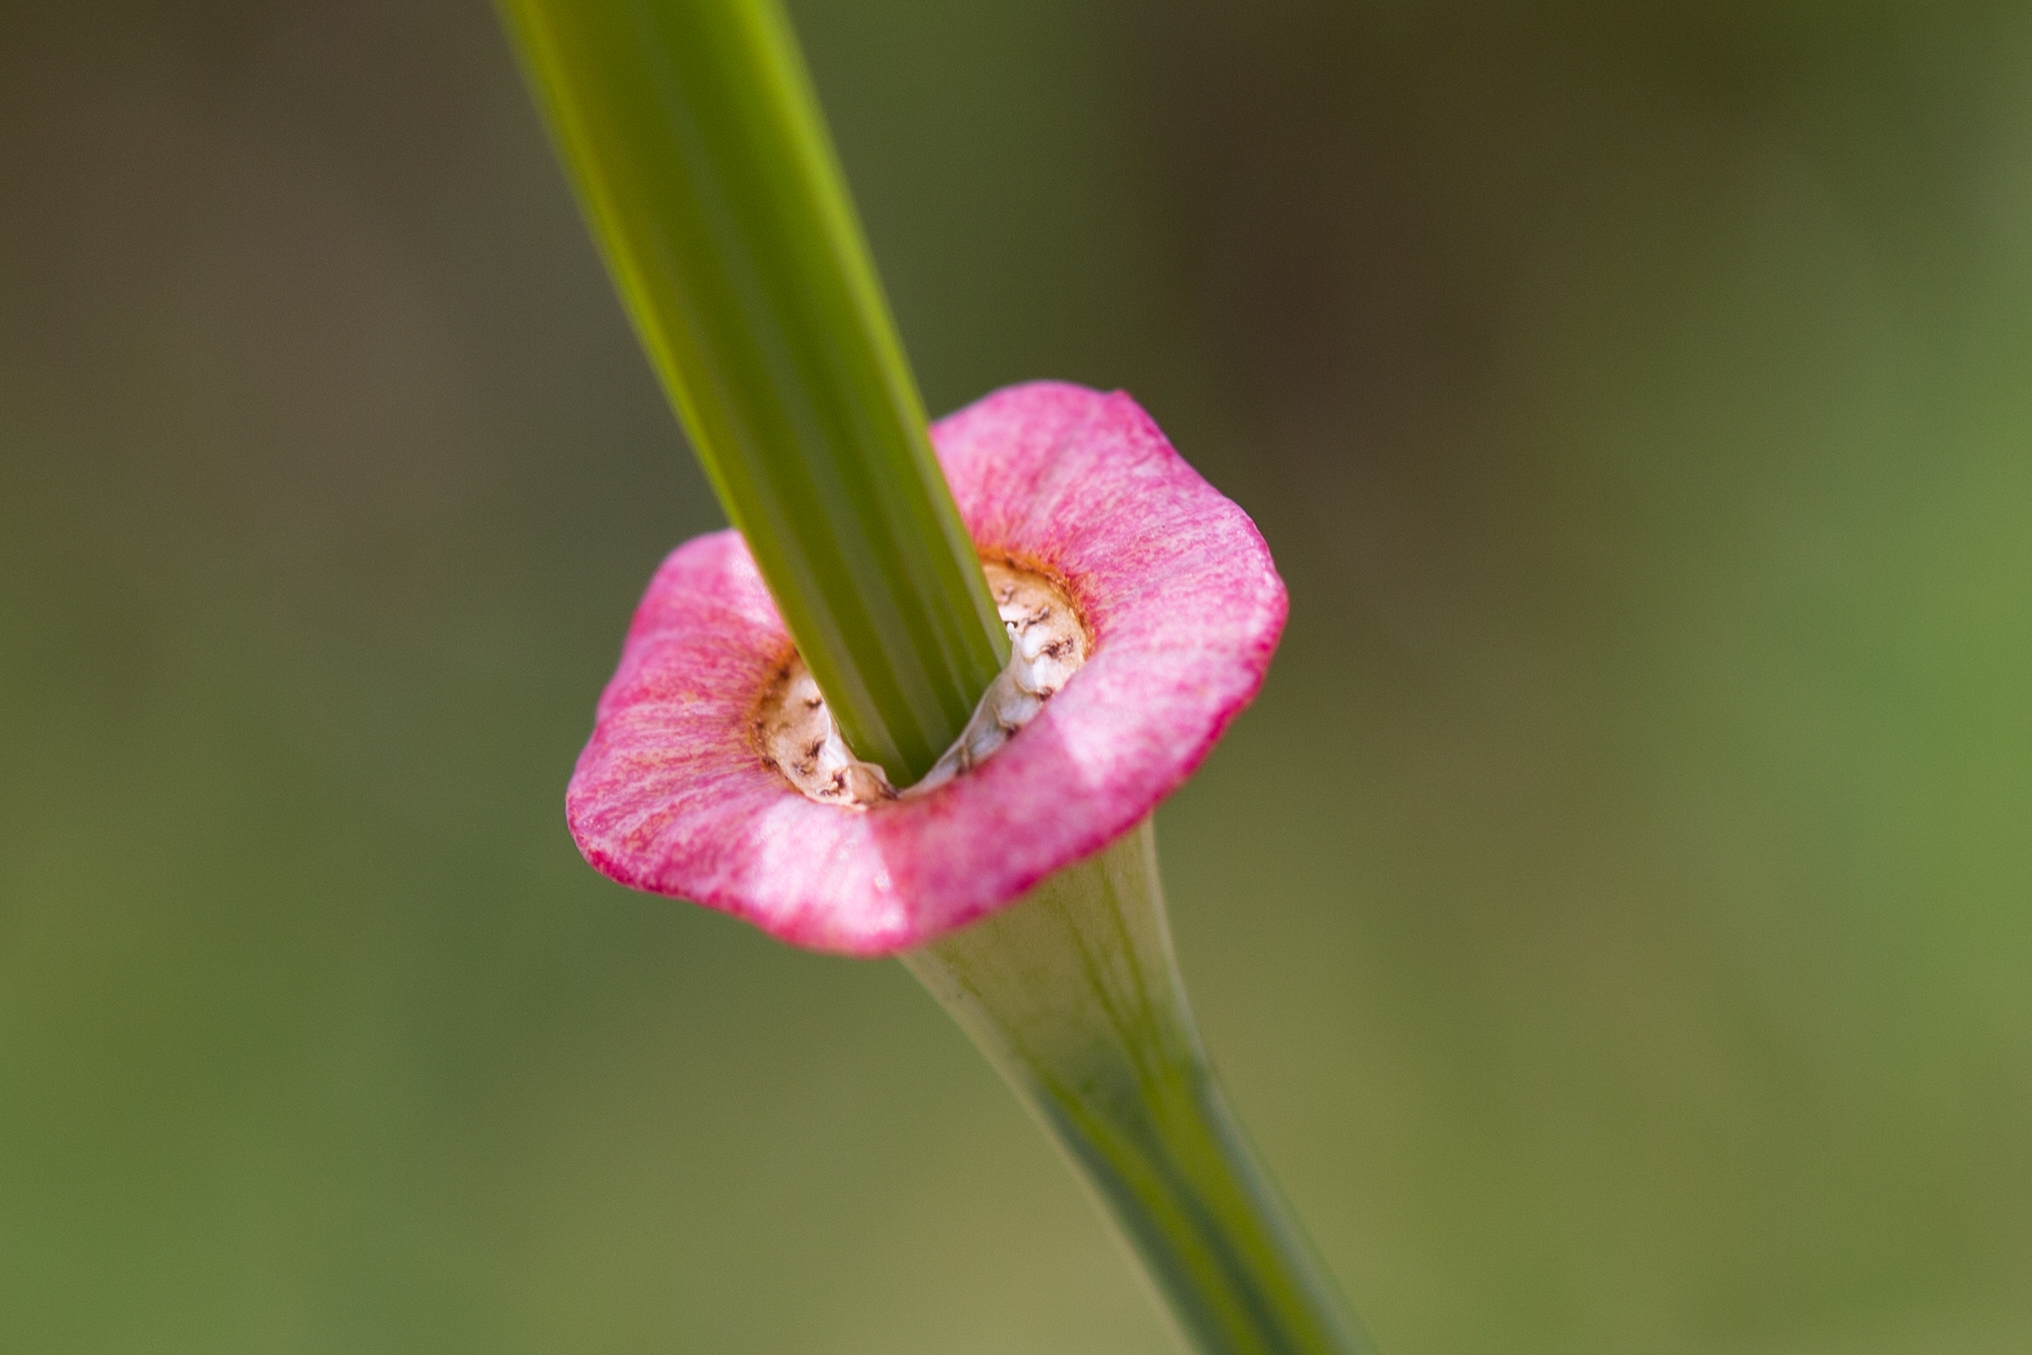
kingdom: Plantae
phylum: Tracheophyta
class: Magnoliopsida
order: Ranunculales
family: Papaveraceae
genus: Eschscholzia
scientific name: Eschscholzia californica
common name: California poppy
